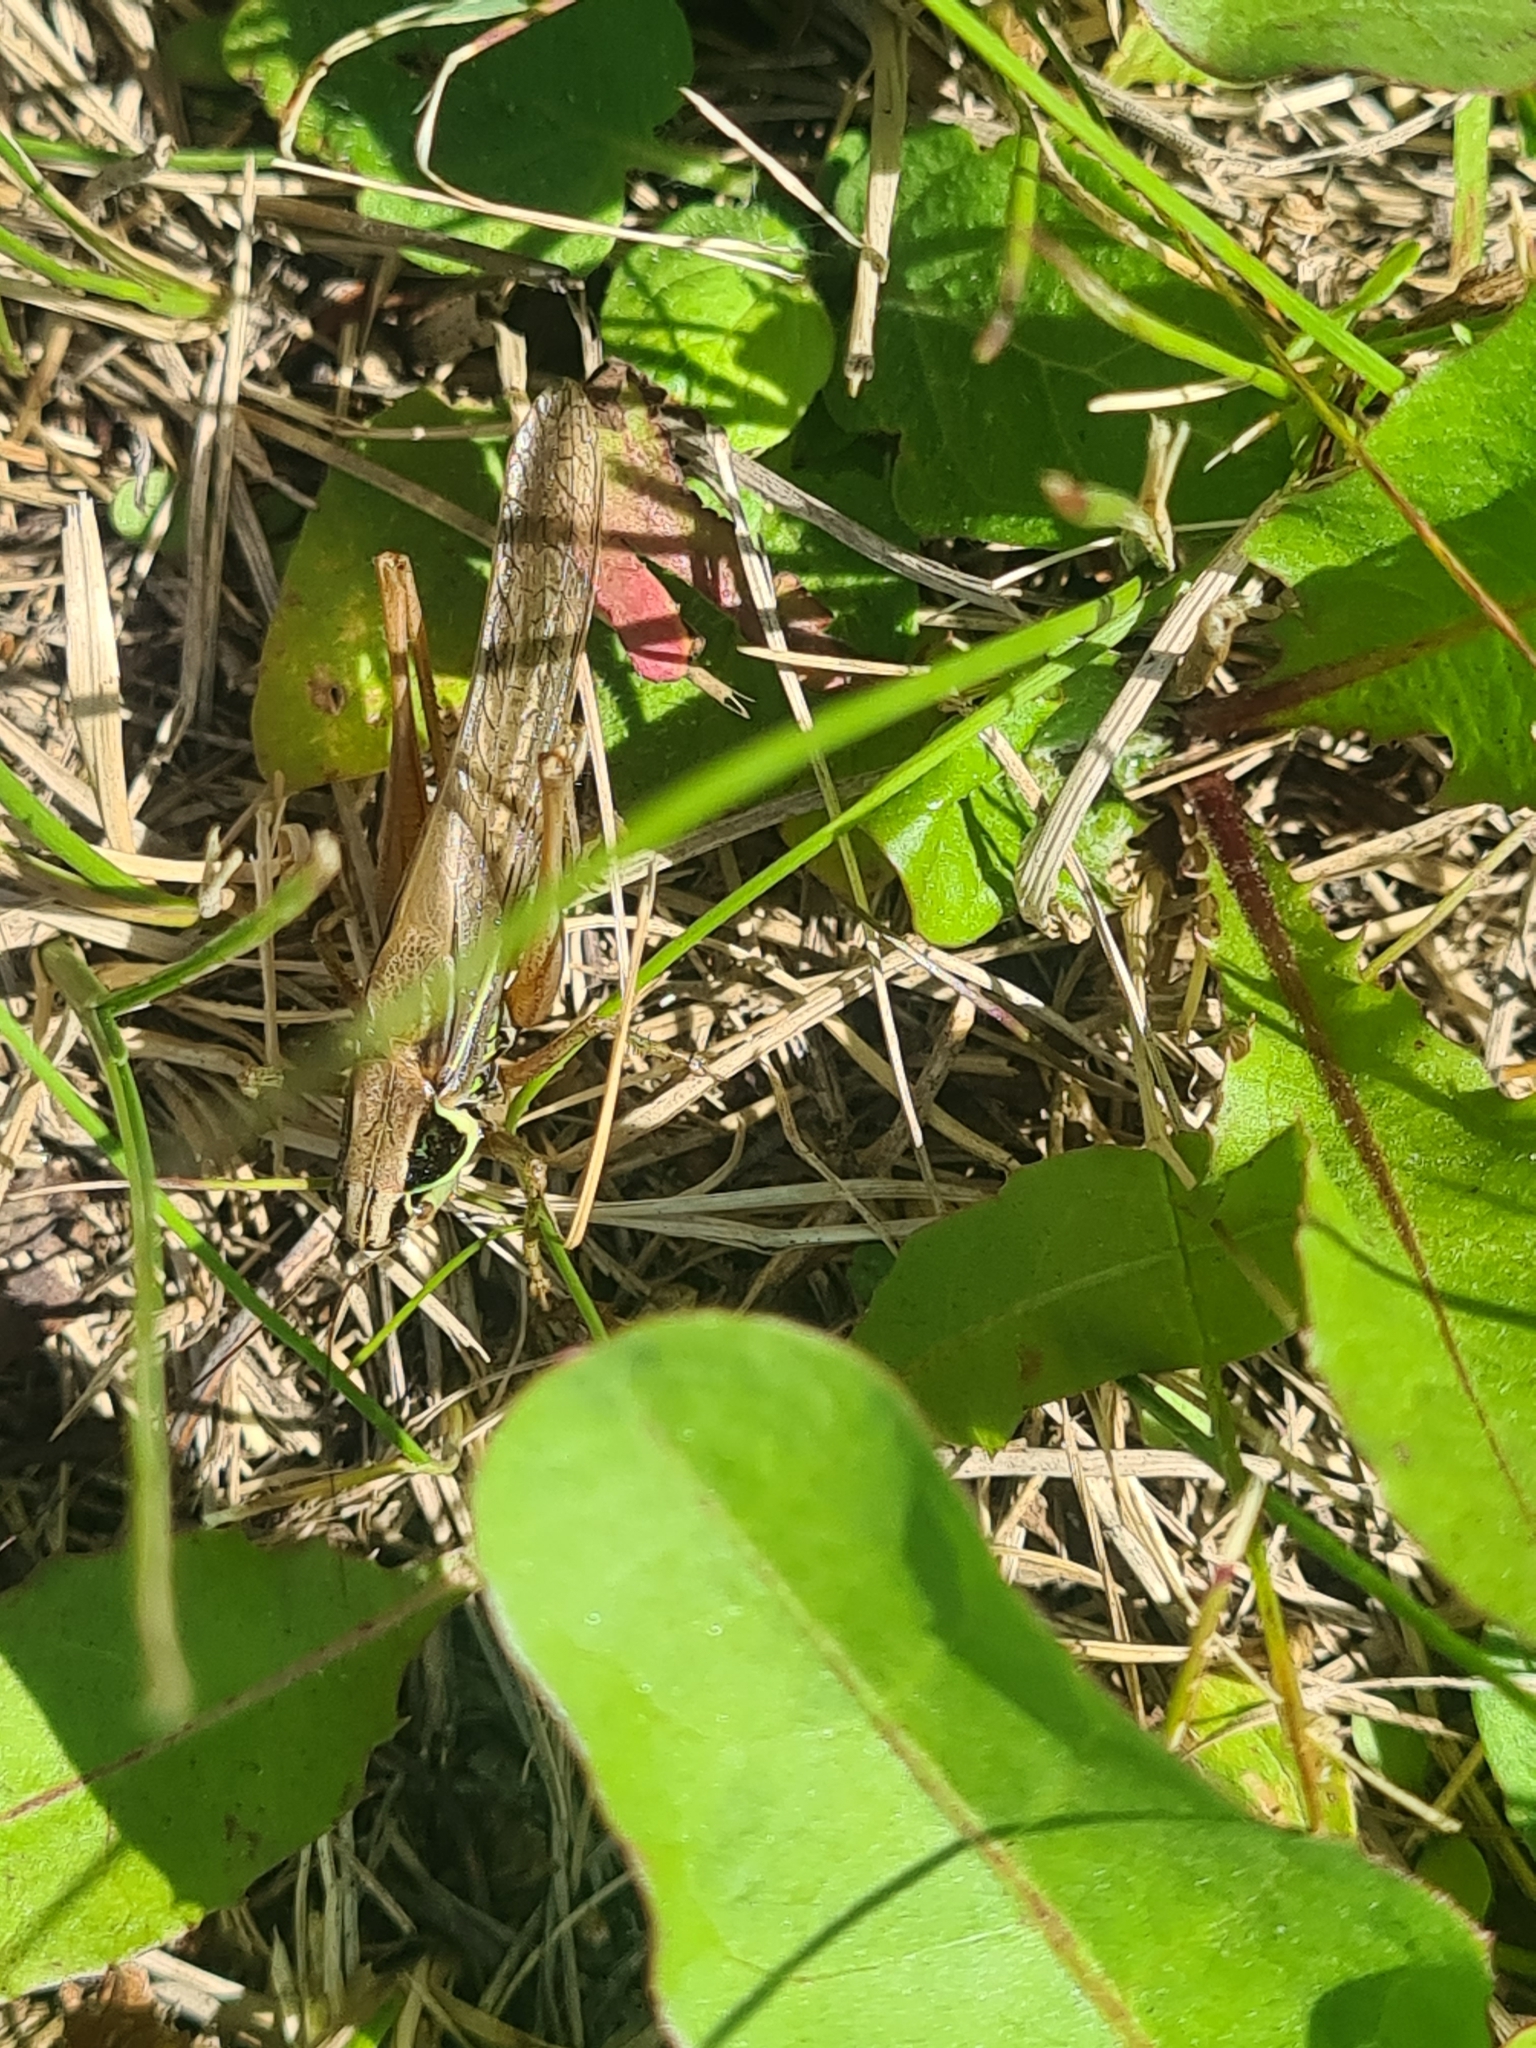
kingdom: Animalia
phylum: Arthropoda
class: Insecta
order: Orthoptera
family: Tettigoniidae
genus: Roeseliana
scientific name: Roeseliana roeselii
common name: Roesel's bush cricket
